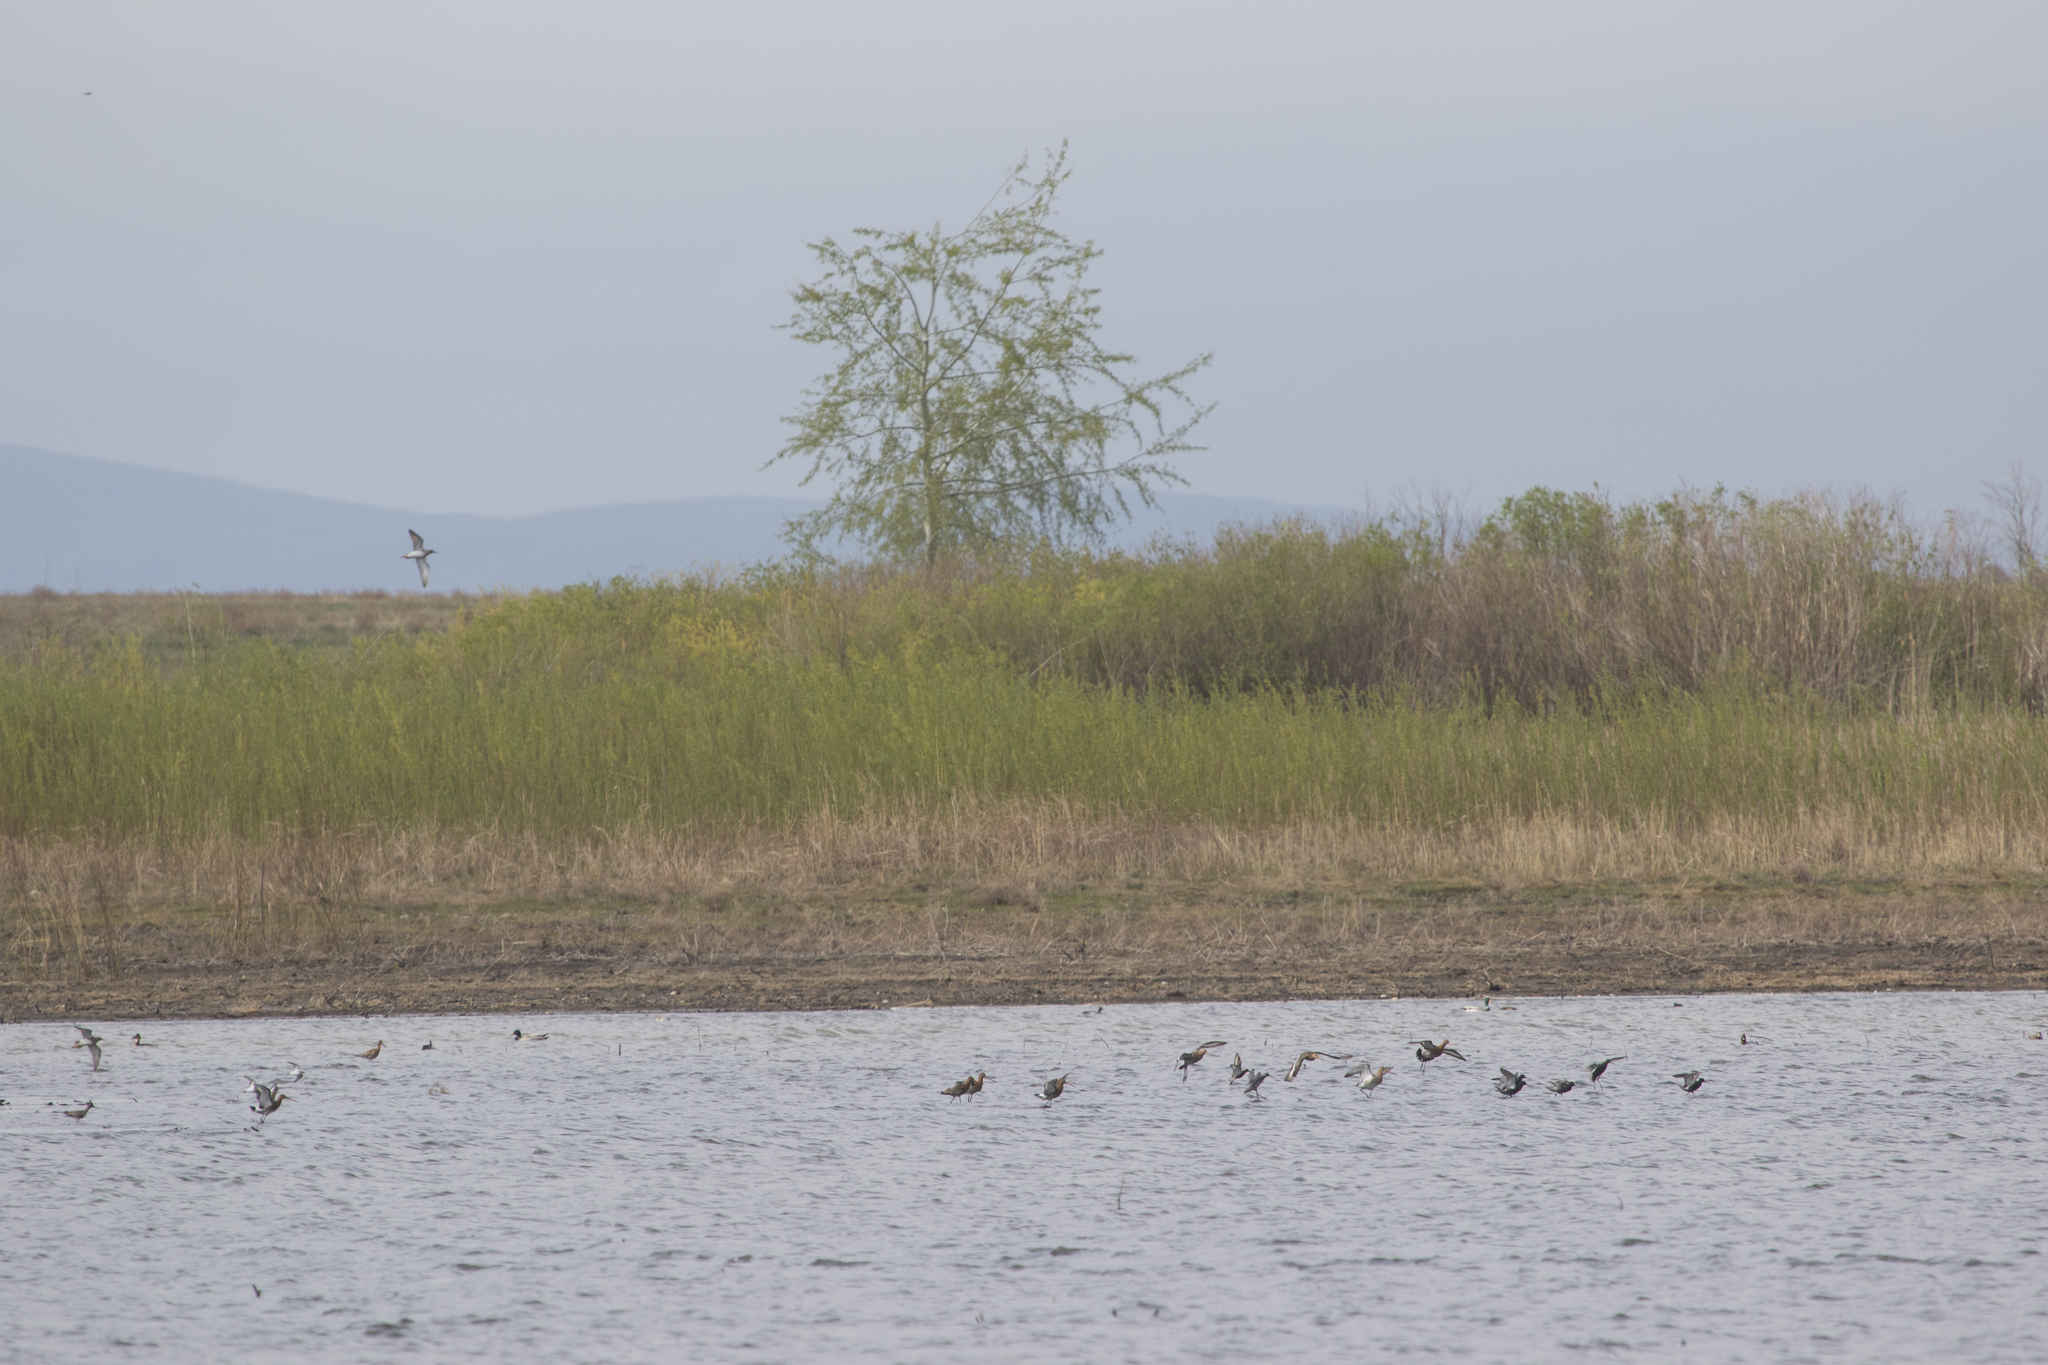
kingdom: Animalia
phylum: Chordata
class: Aves
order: Anseriformes
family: Anatidae
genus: Spatula
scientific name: Spatula querquedula
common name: Garganey
